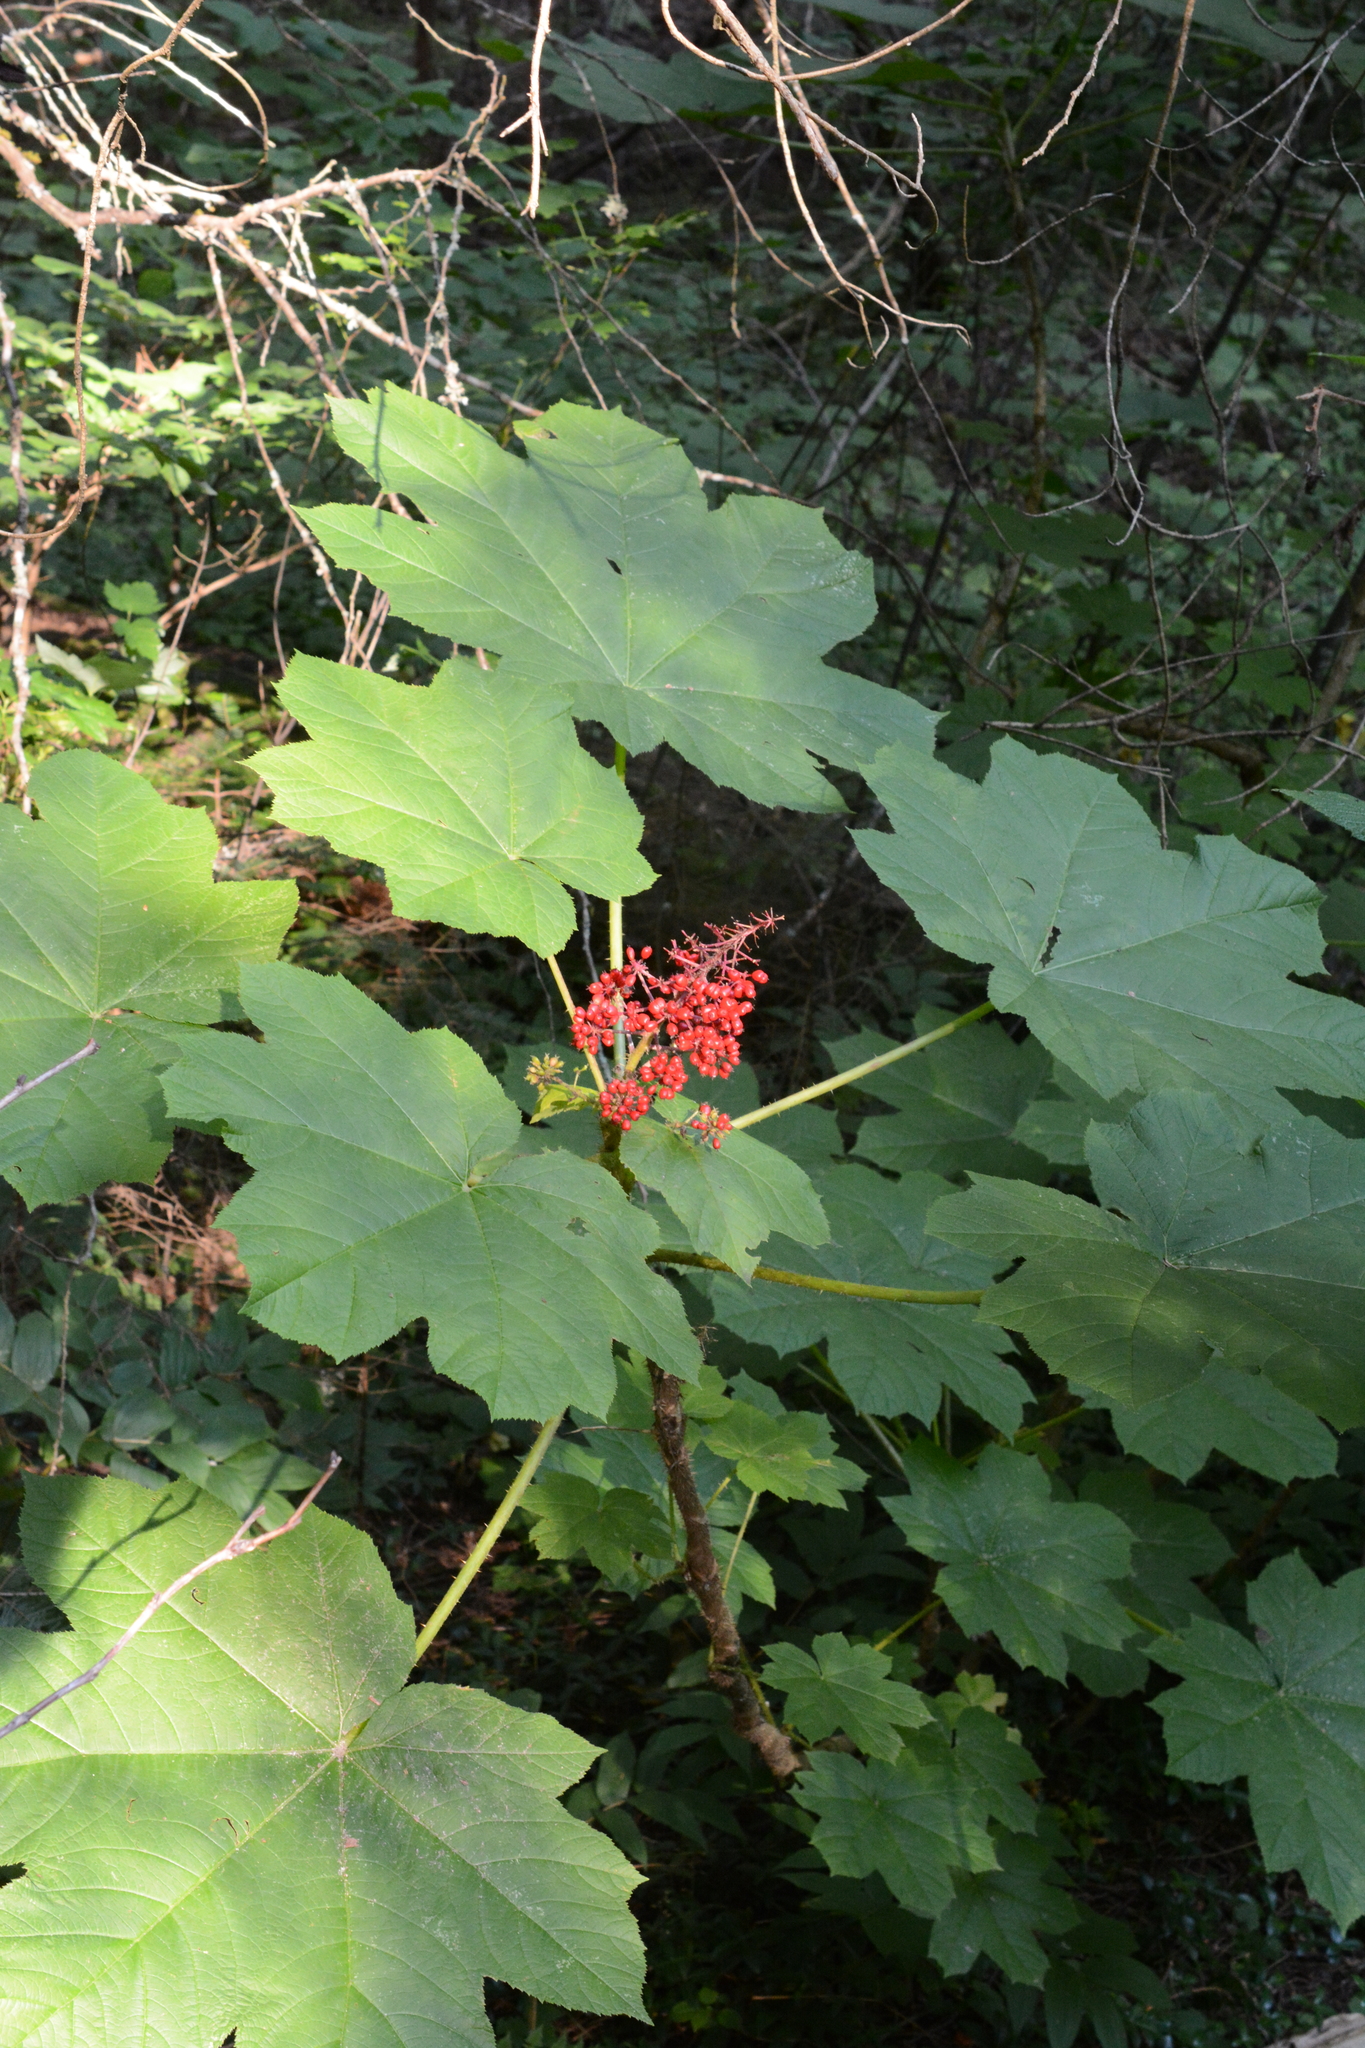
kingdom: Plantae
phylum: Tracheophyta
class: Magnoliopsida
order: Apiales
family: Araliaceae
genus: Oplopanax
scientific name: Oplopanax horridus
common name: Devil's walking-stick
